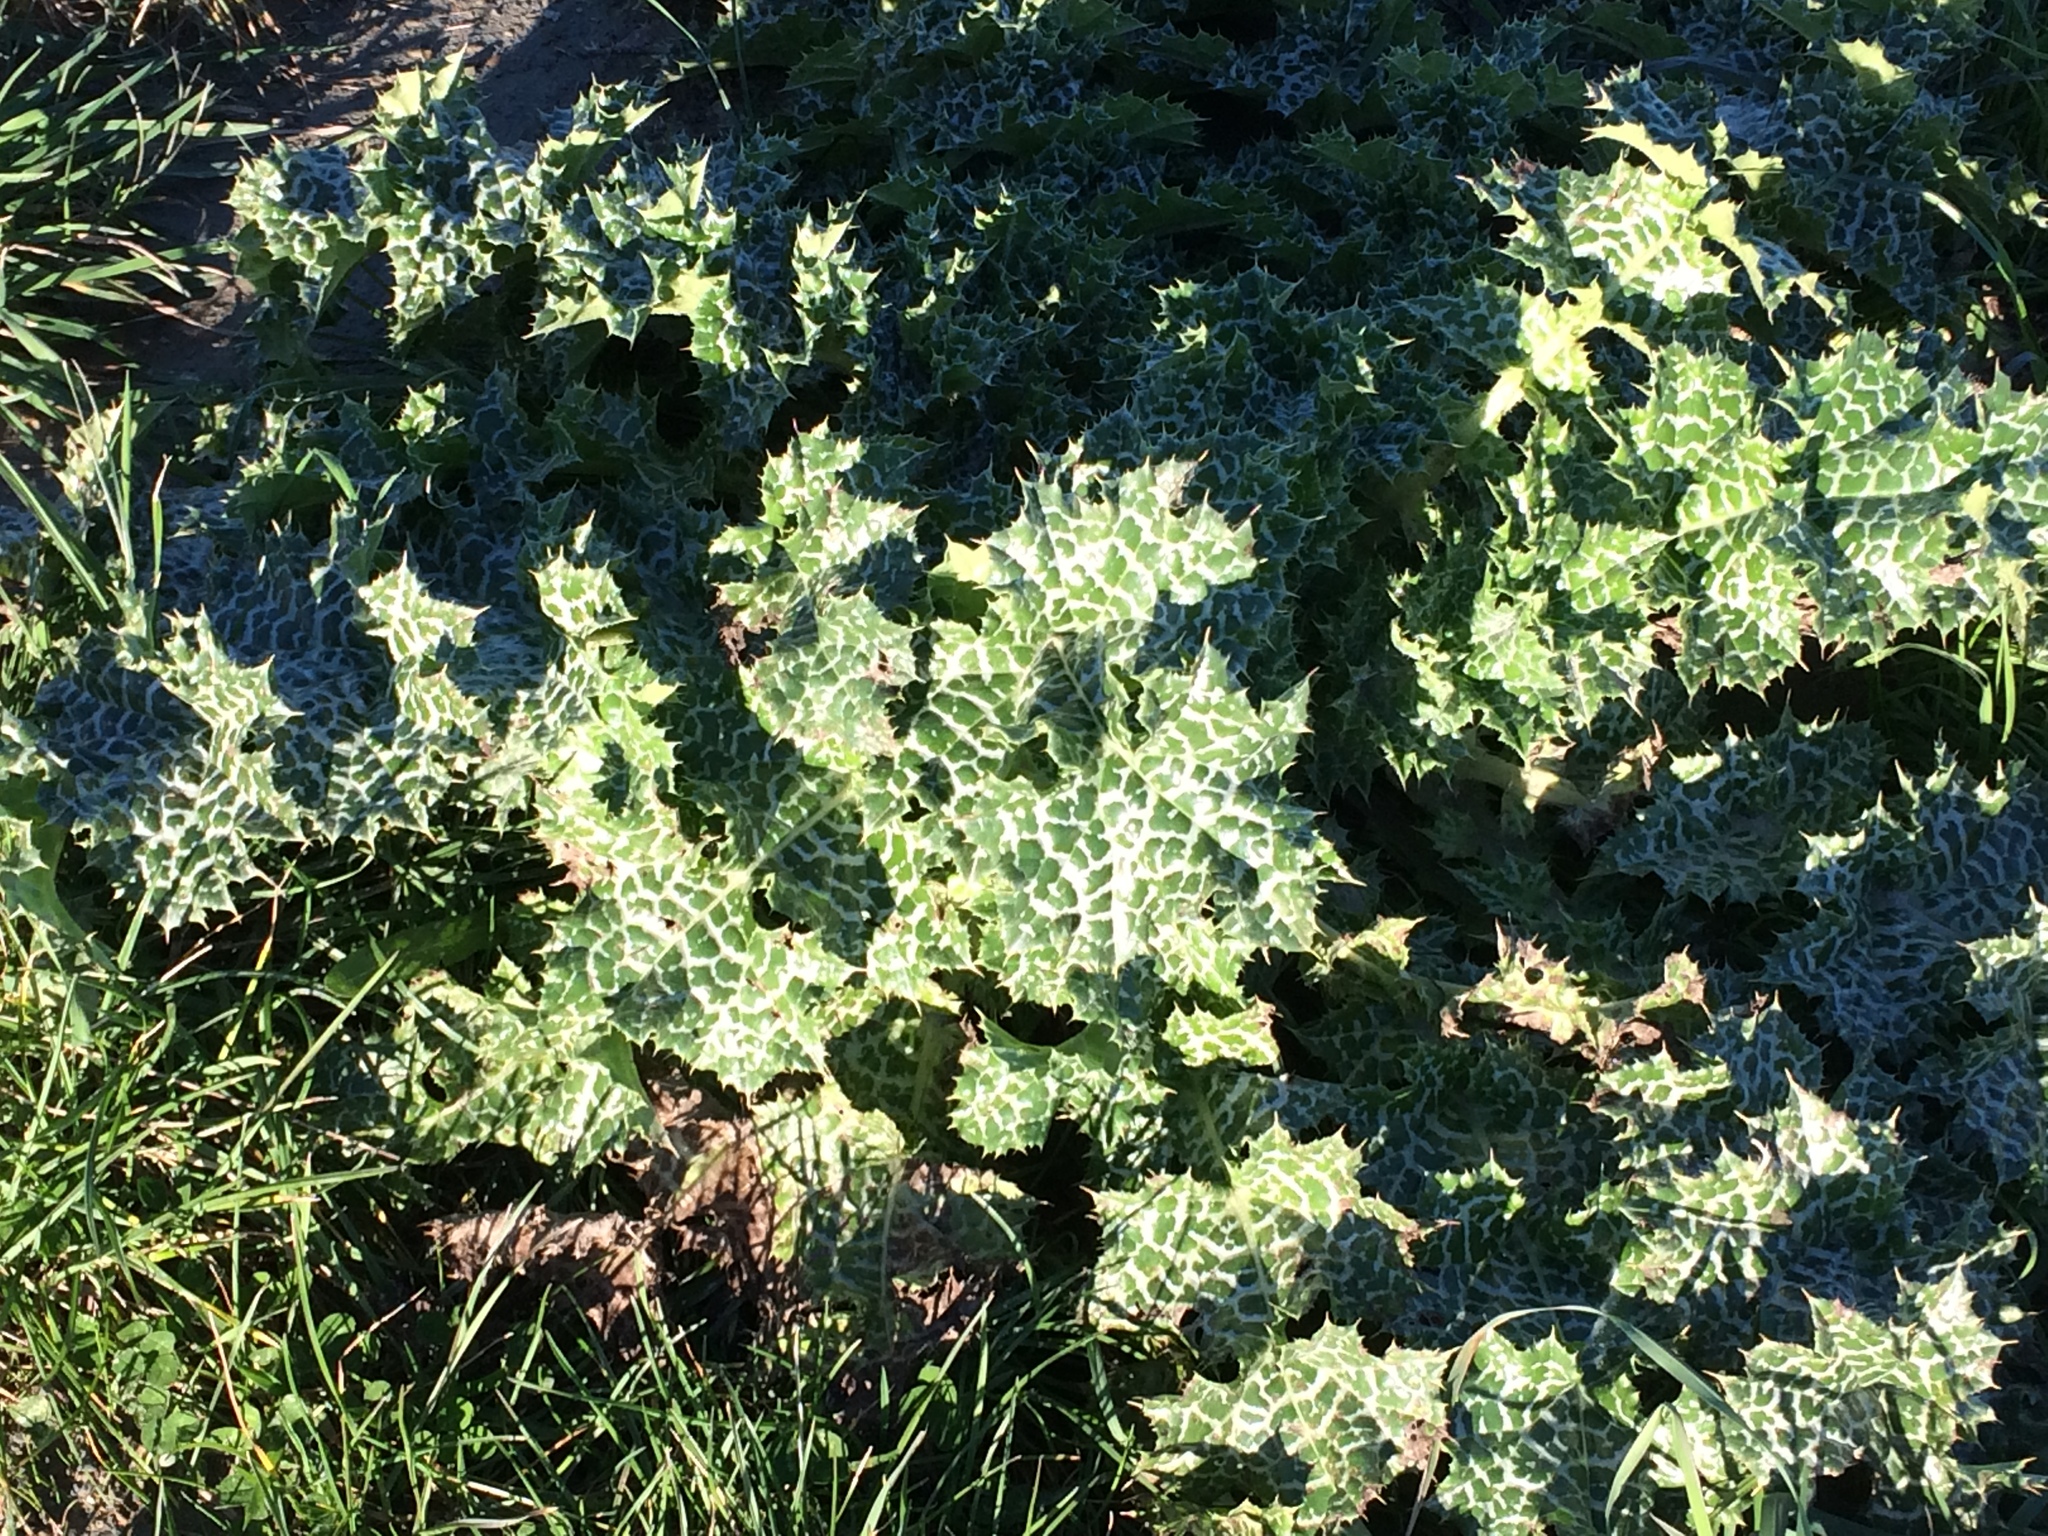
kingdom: Plantae
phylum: Tracheophyta
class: Magnoliopsida
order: Asterales
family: Asteraceae
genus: Silybum
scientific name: Silybum marianum
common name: Milk thistle
